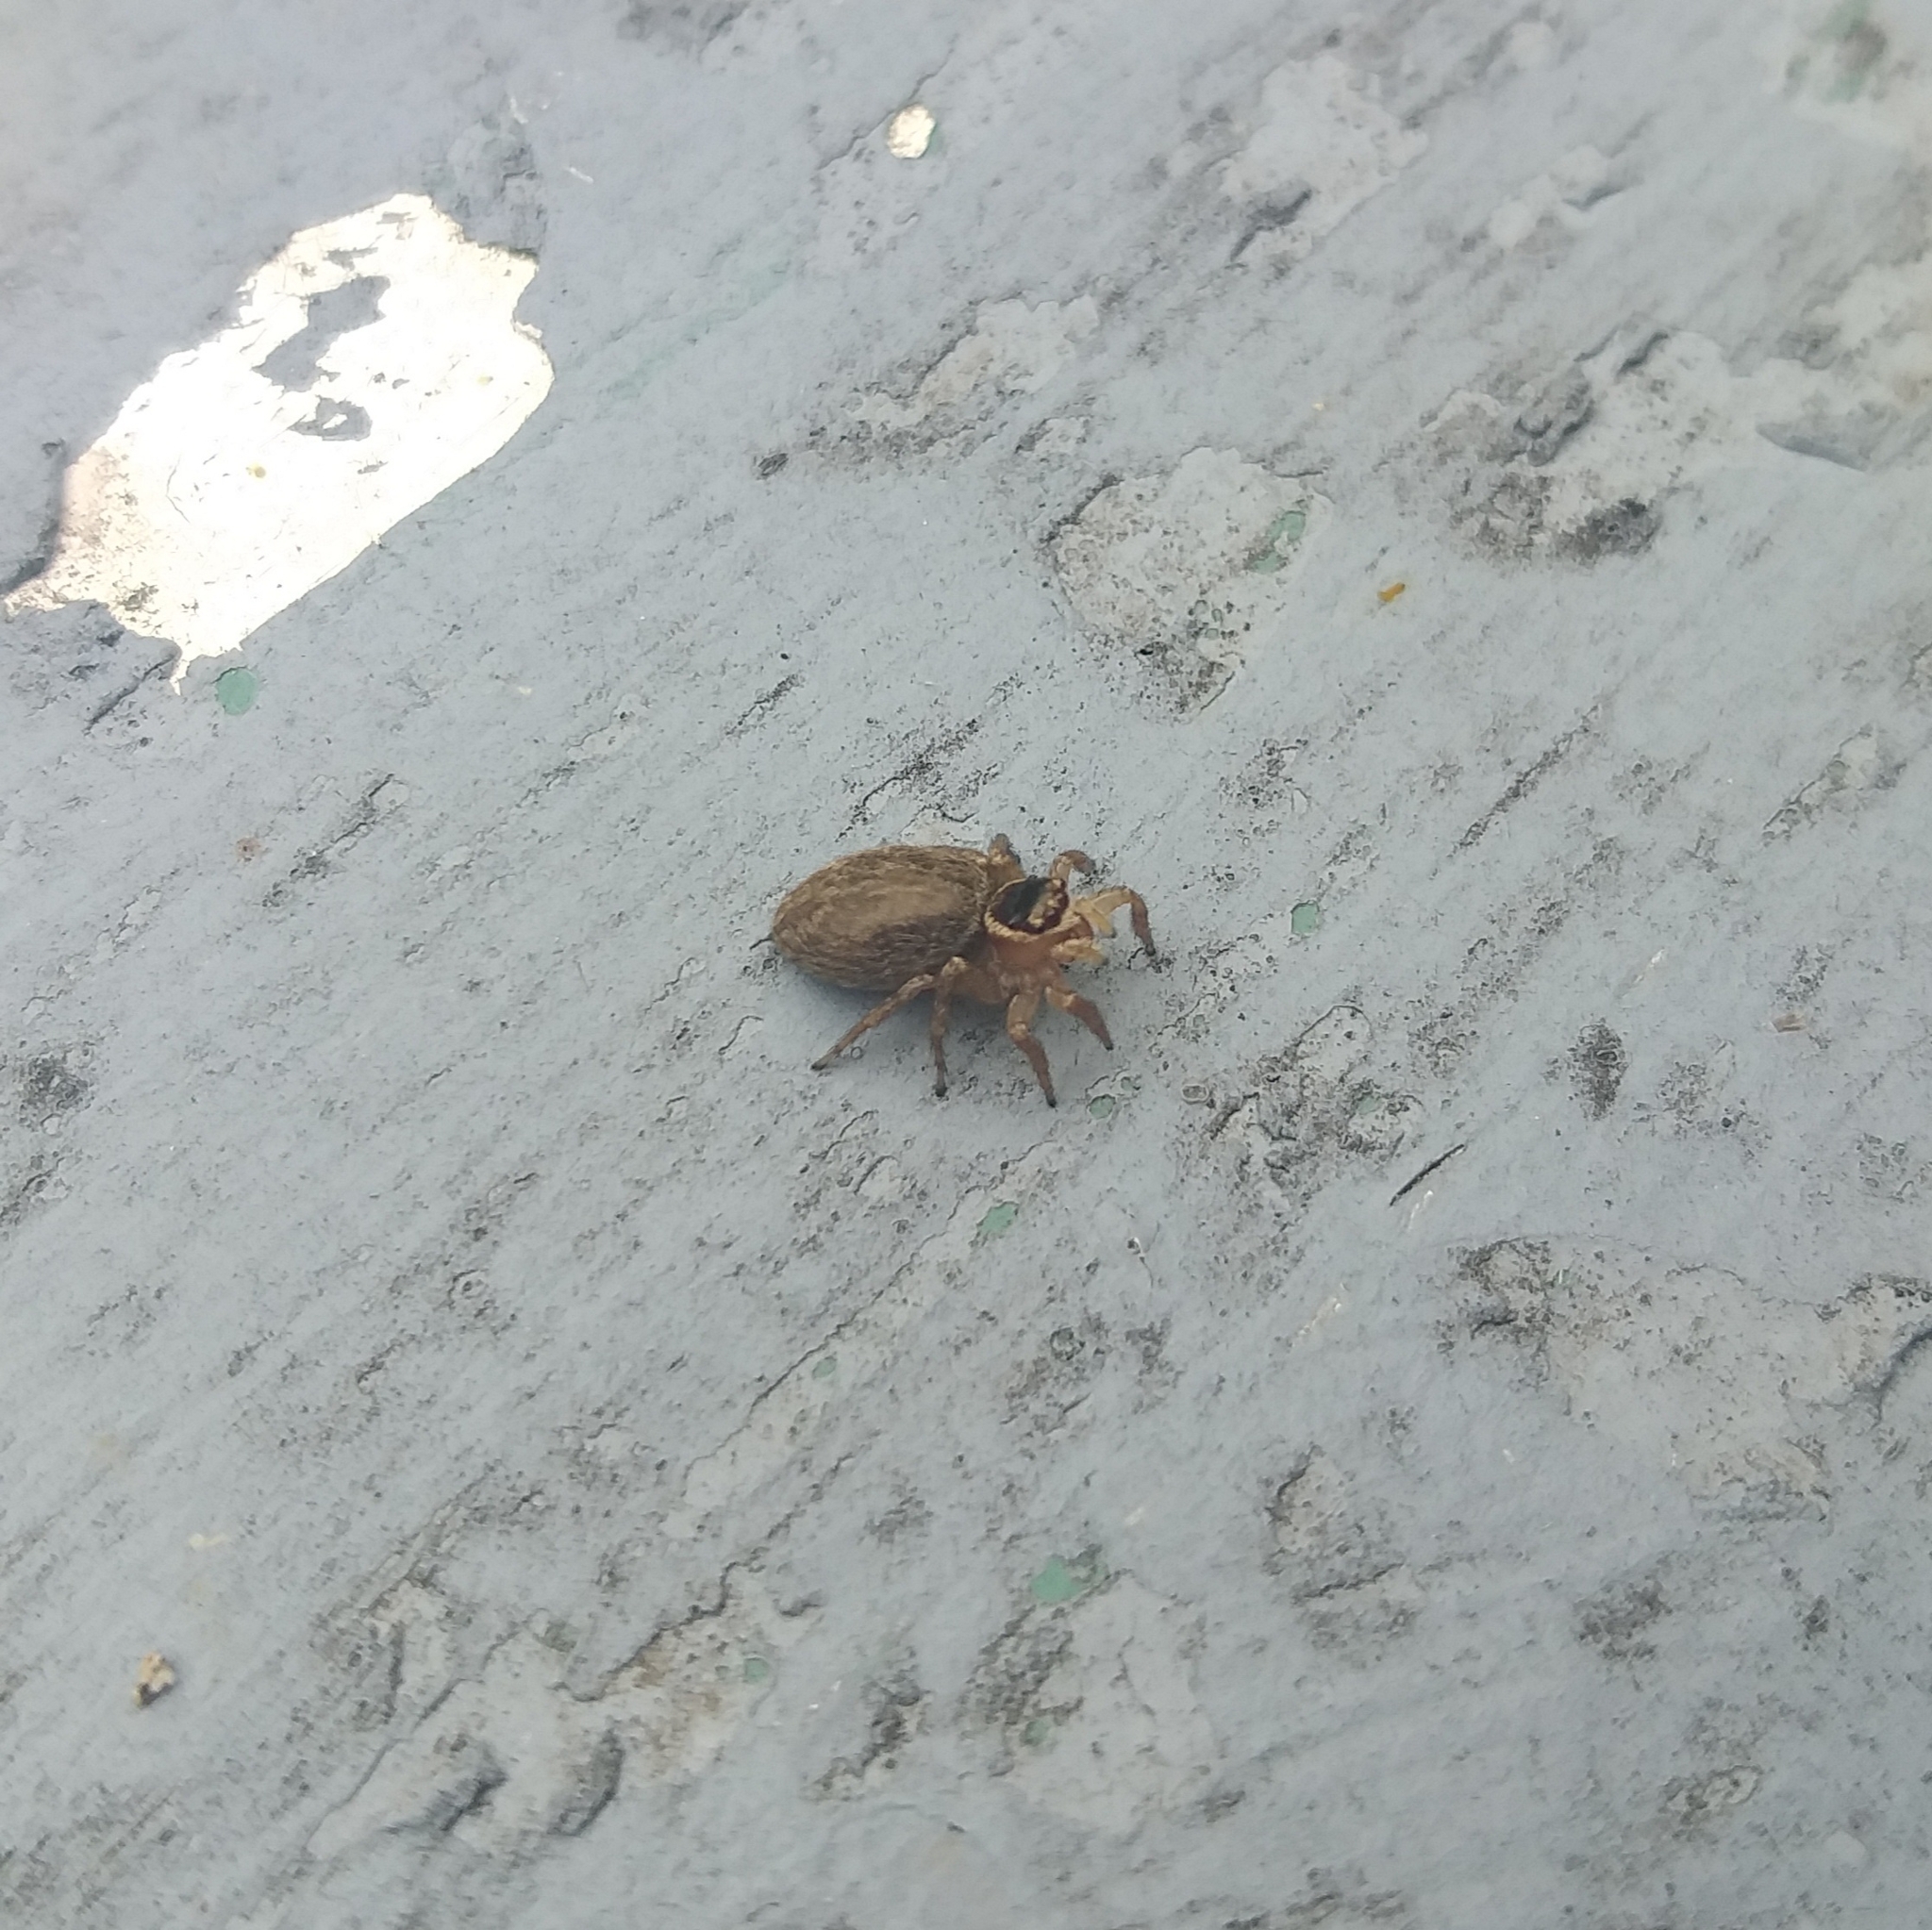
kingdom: Animalia
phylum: Arthropoda
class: Arachnida
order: Araneae
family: Salticidae
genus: Maratus
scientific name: Maratus griseus
